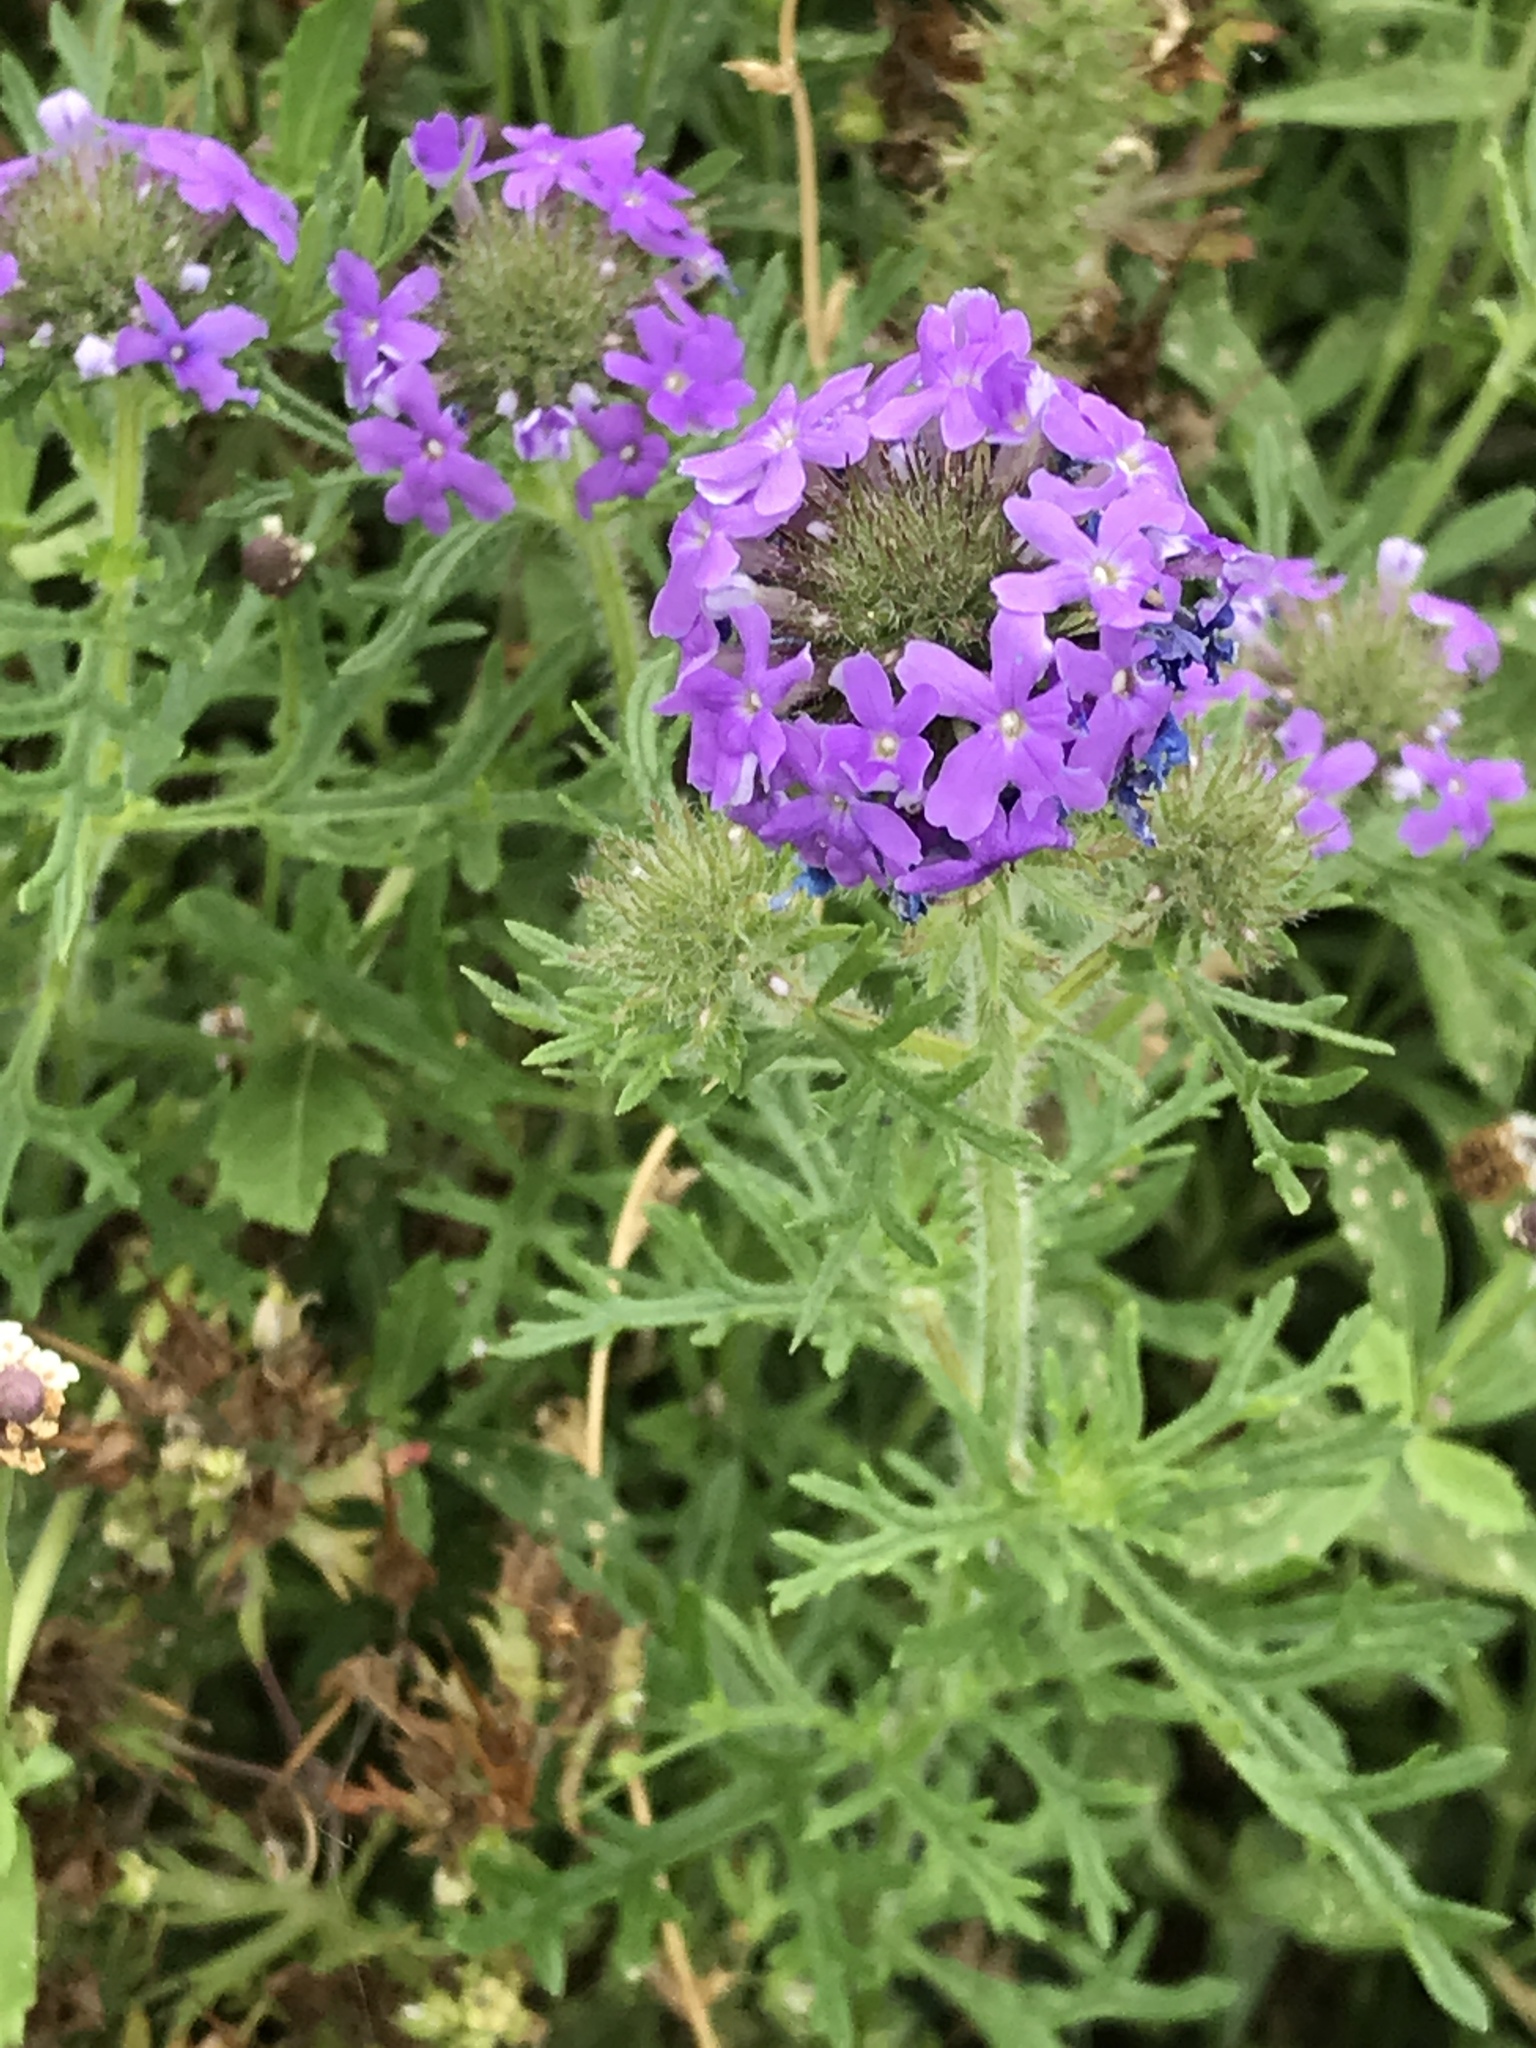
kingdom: Plantae
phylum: Tracheophyta
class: Magnoliopsida
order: Lamiales
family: Verbenaceae
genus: Verbena
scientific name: Verbena bipinnatifida
